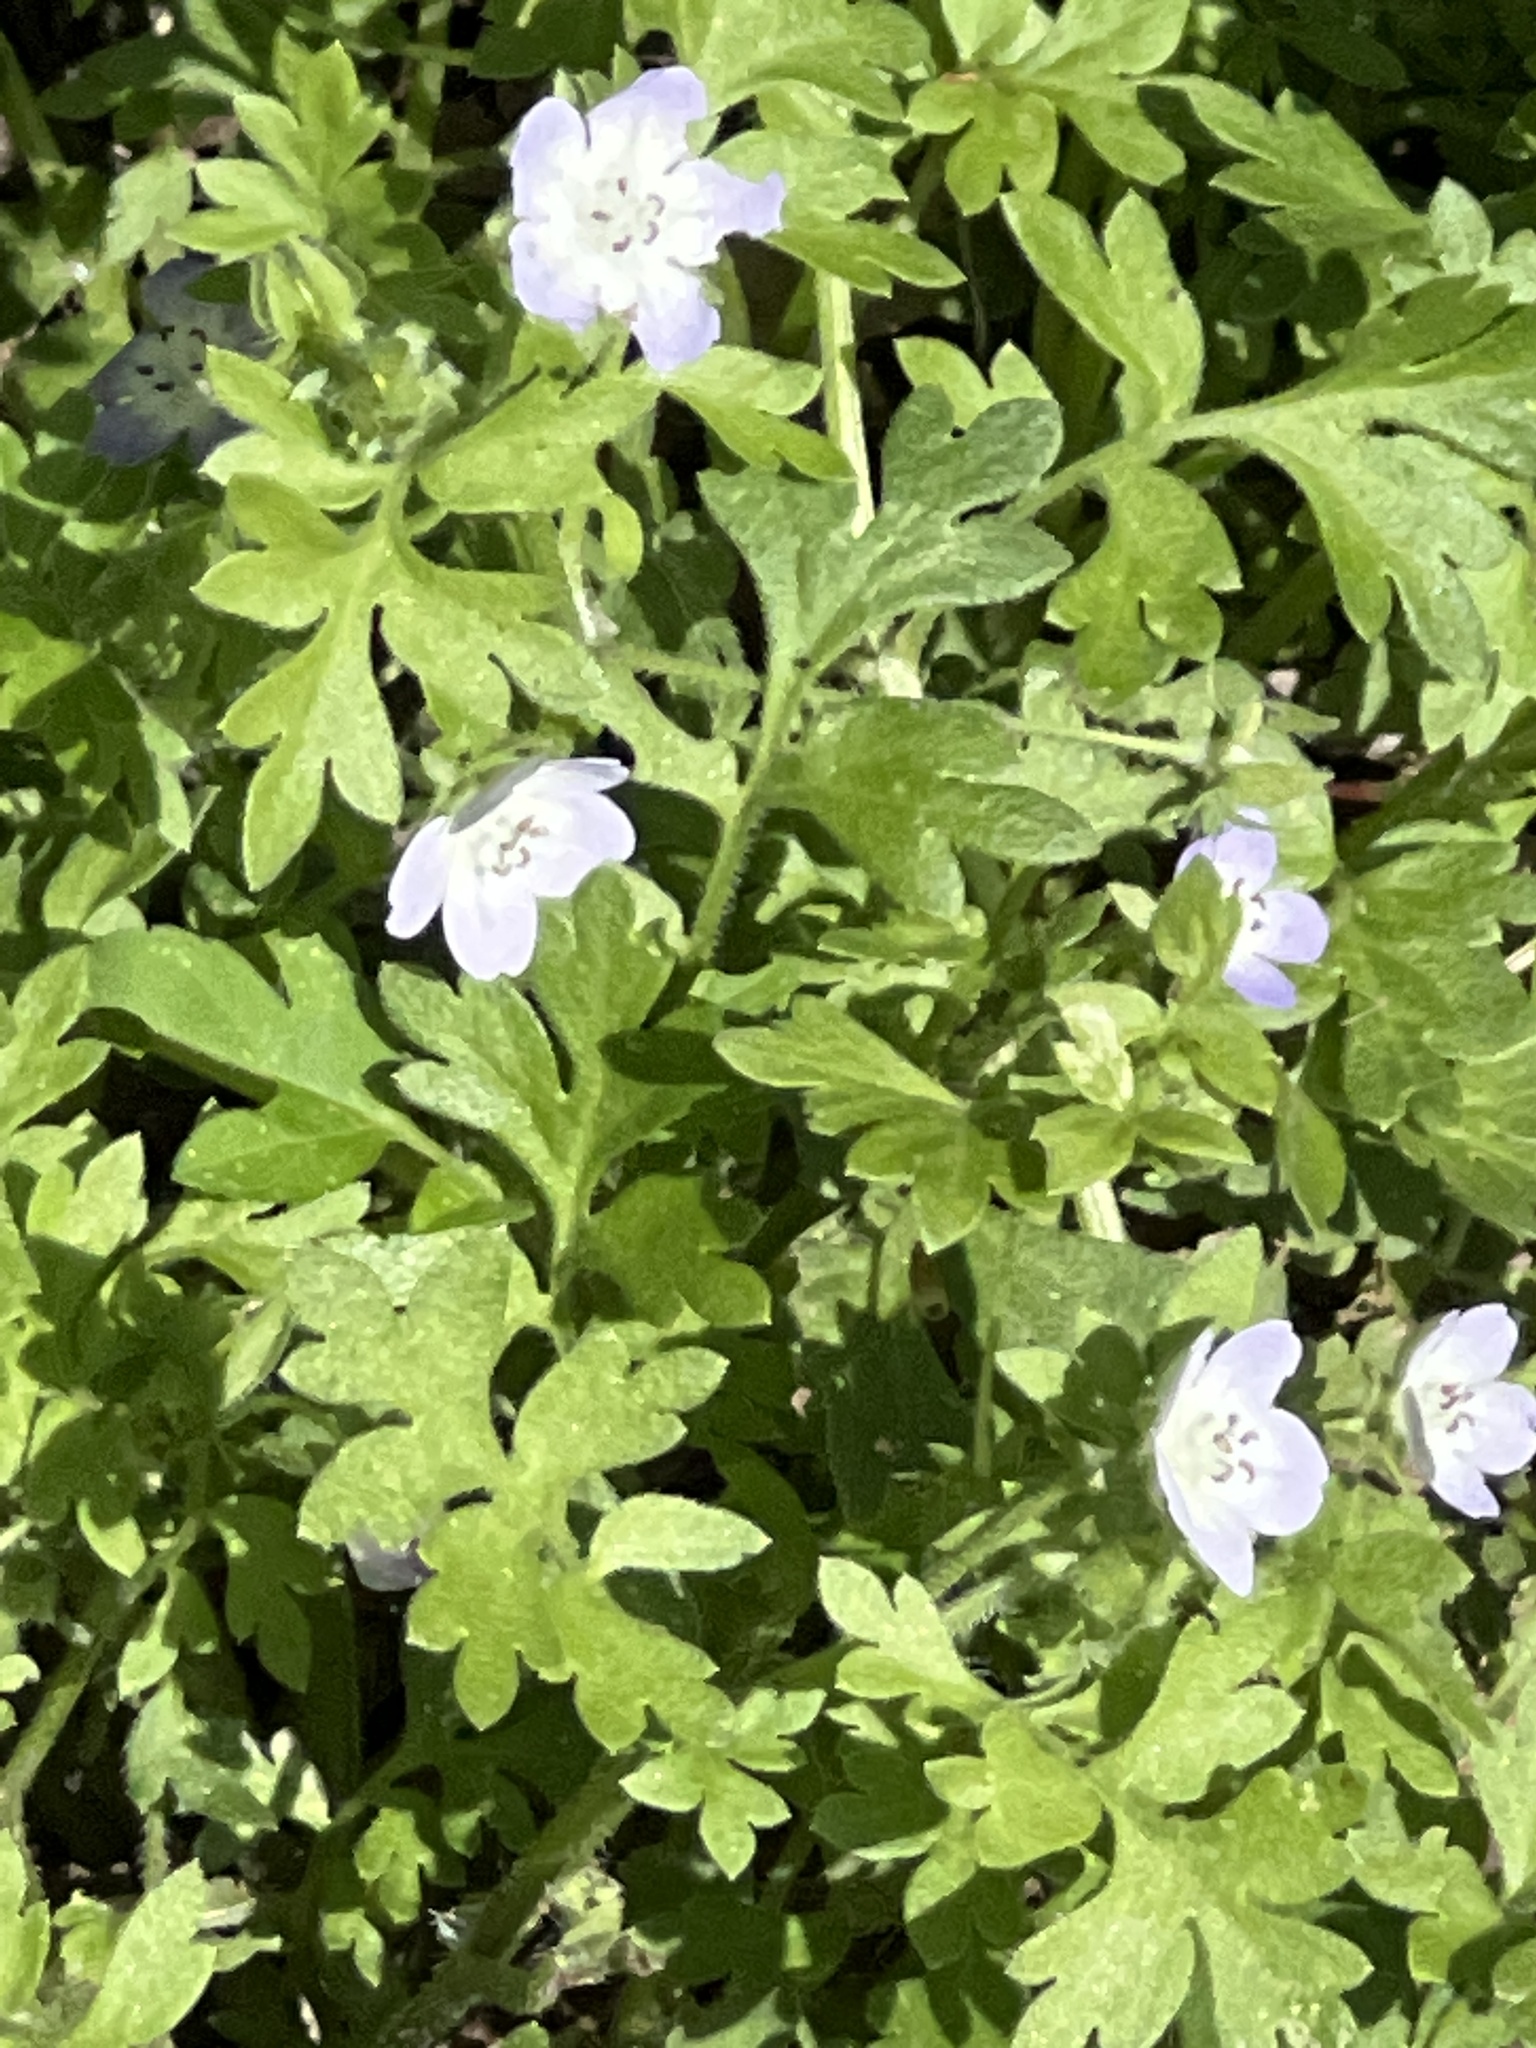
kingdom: Plantae
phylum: Tracheophyta
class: Magnoliopsida
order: Boraginales
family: Hydrophyllaceae
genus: Nemophila
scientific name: Nemophila phacelioides
